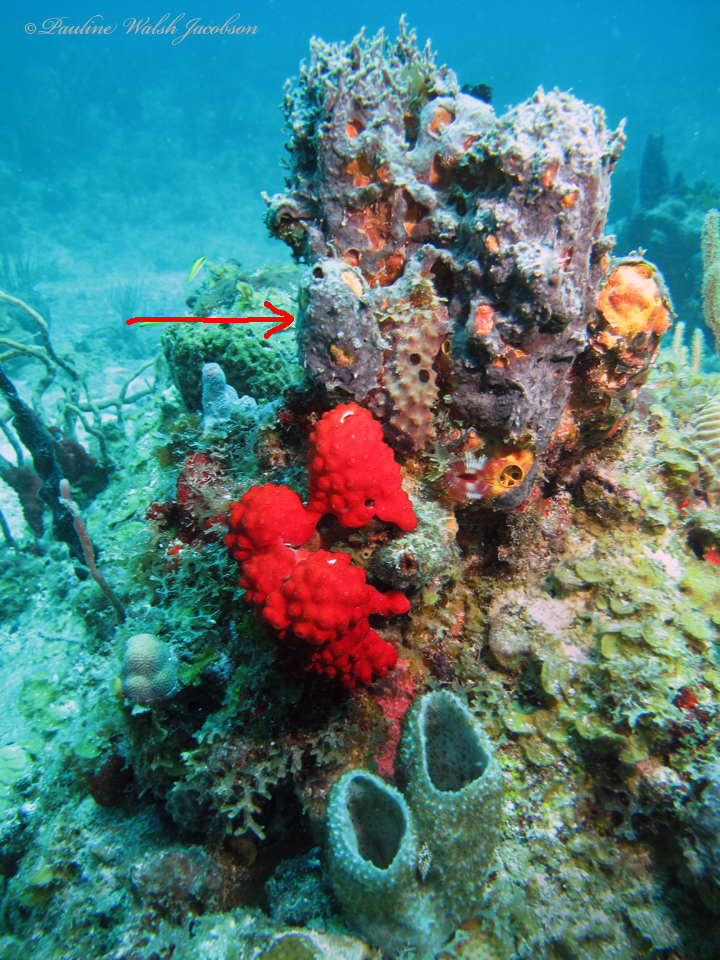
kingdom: Animalia
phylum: Porifera
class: Demospongiae
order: Bubarida
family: Dictyonellidae
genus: Dictyonella
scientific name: Dictyonella funicularis
